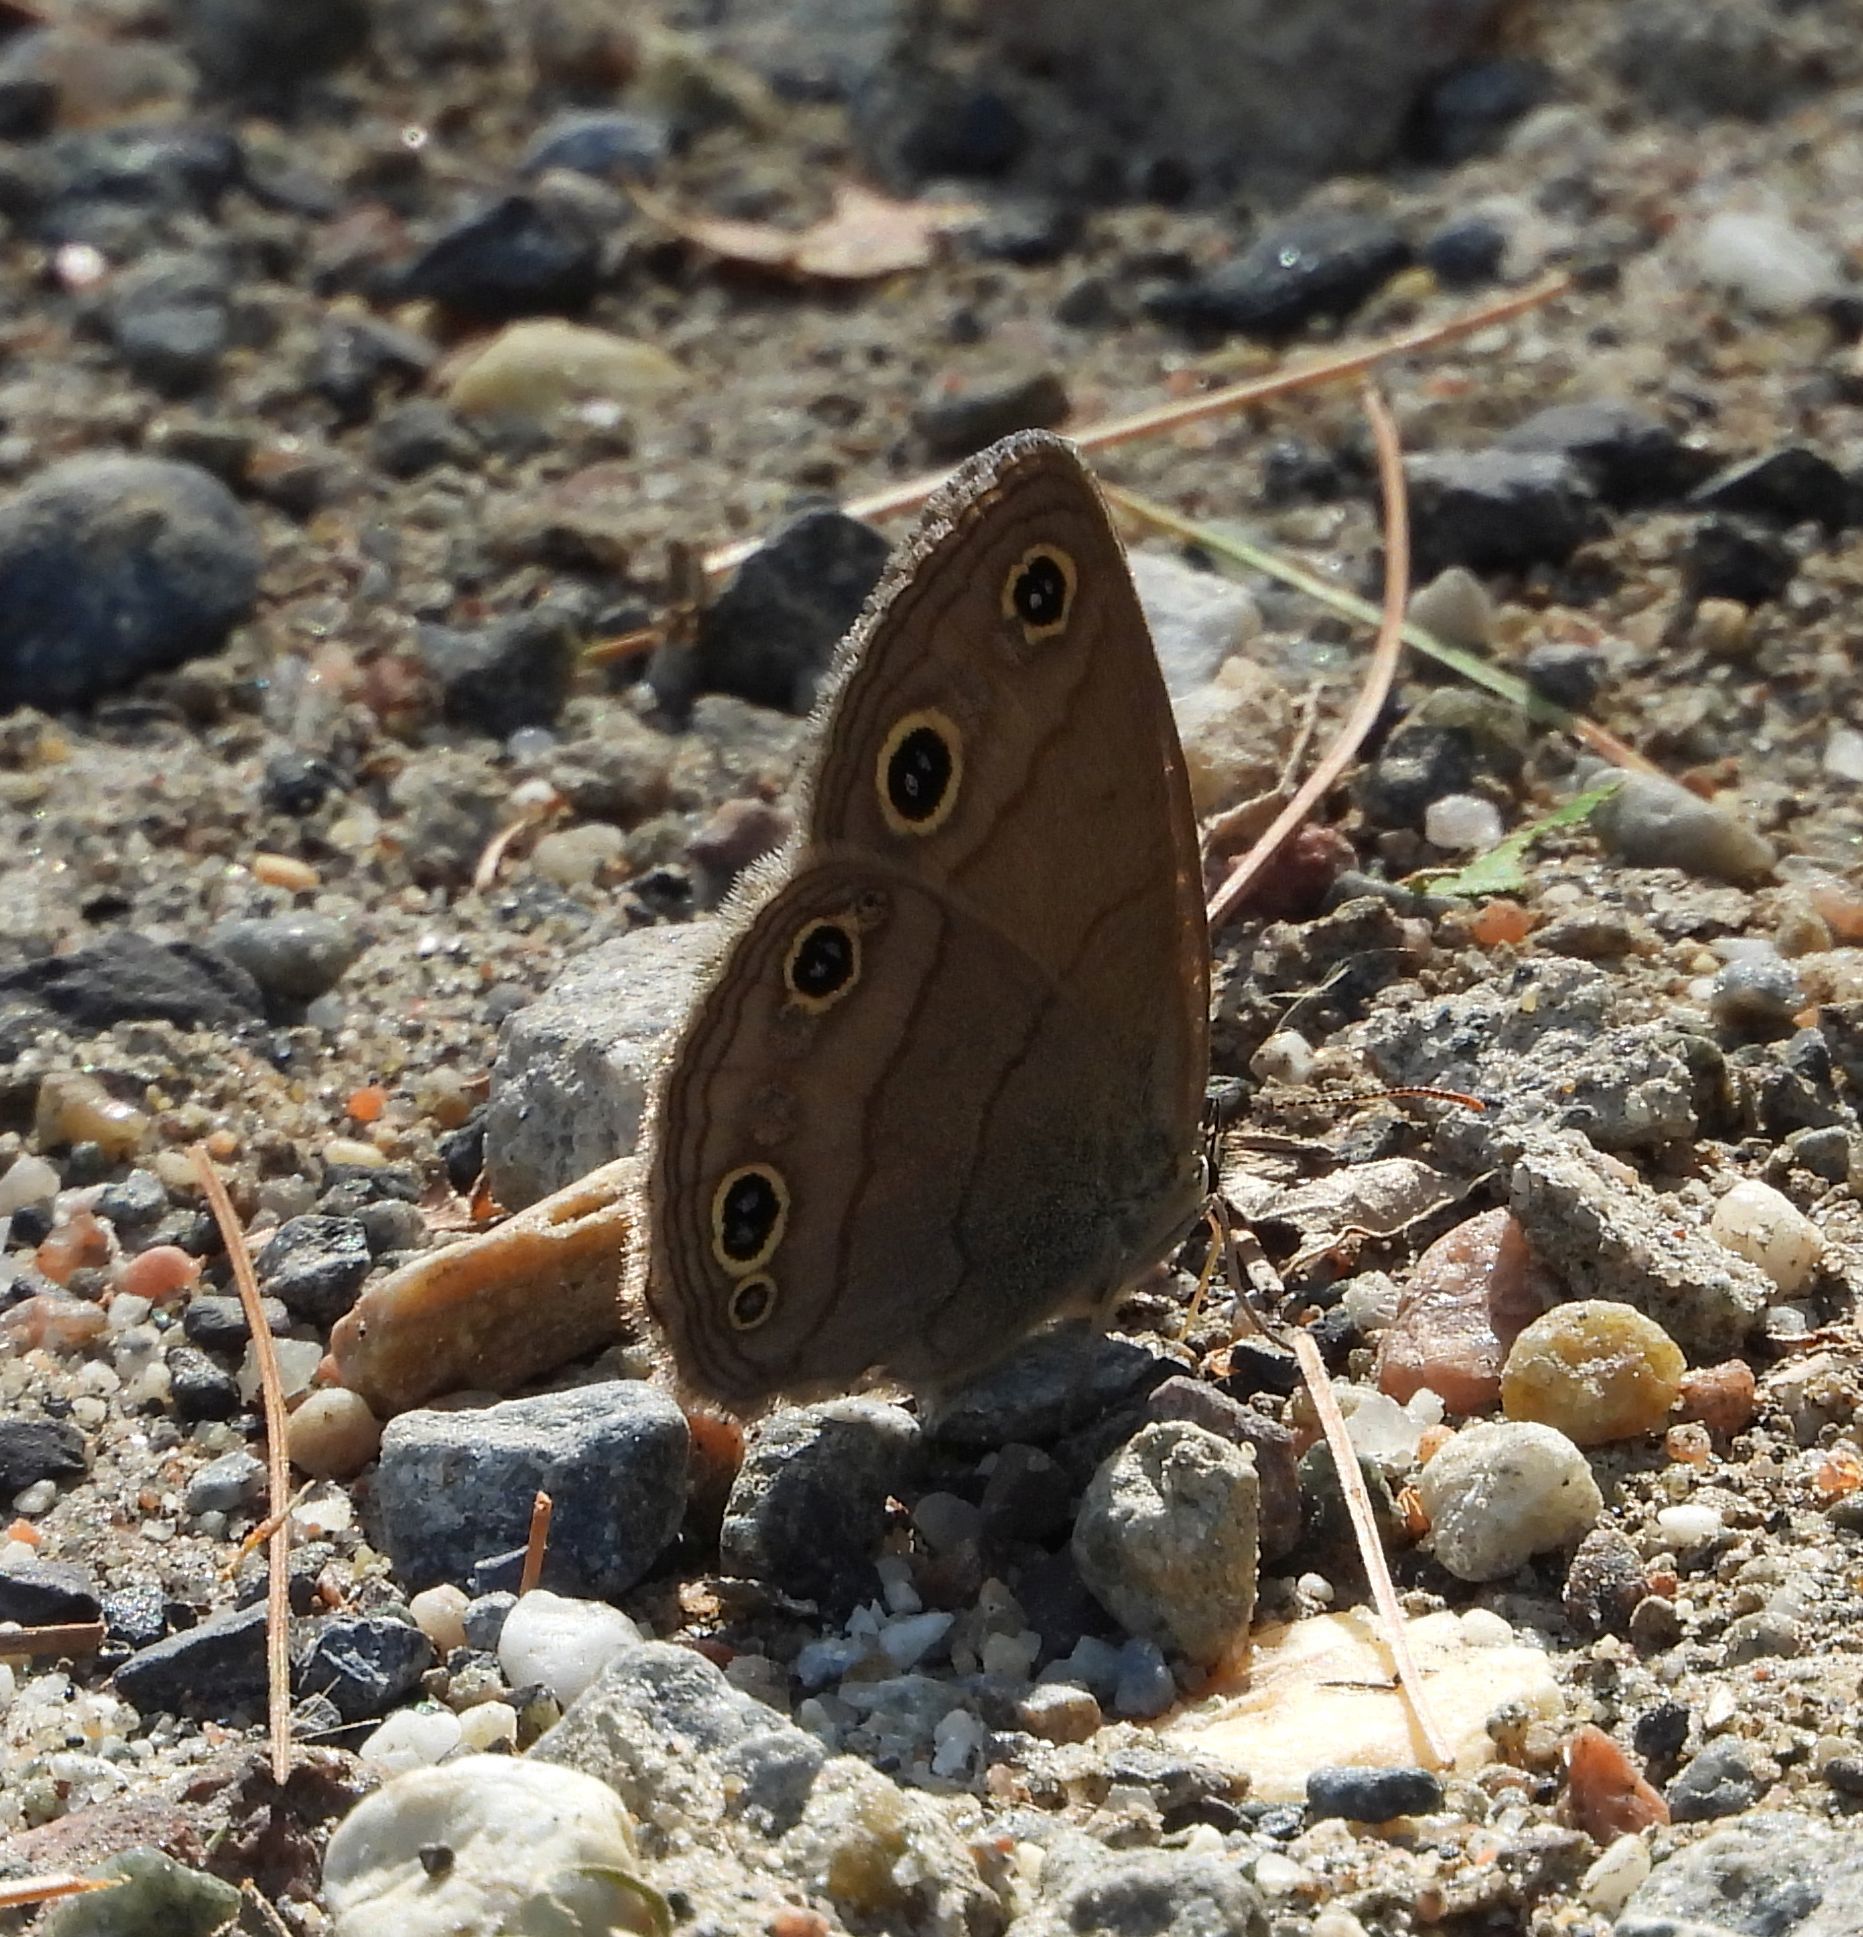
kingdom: Animalia
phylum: Arthropoda
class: Insecta
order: Lepidoptera
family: Nymphalidae
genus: Euptychia
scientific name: Euptychia cymela
